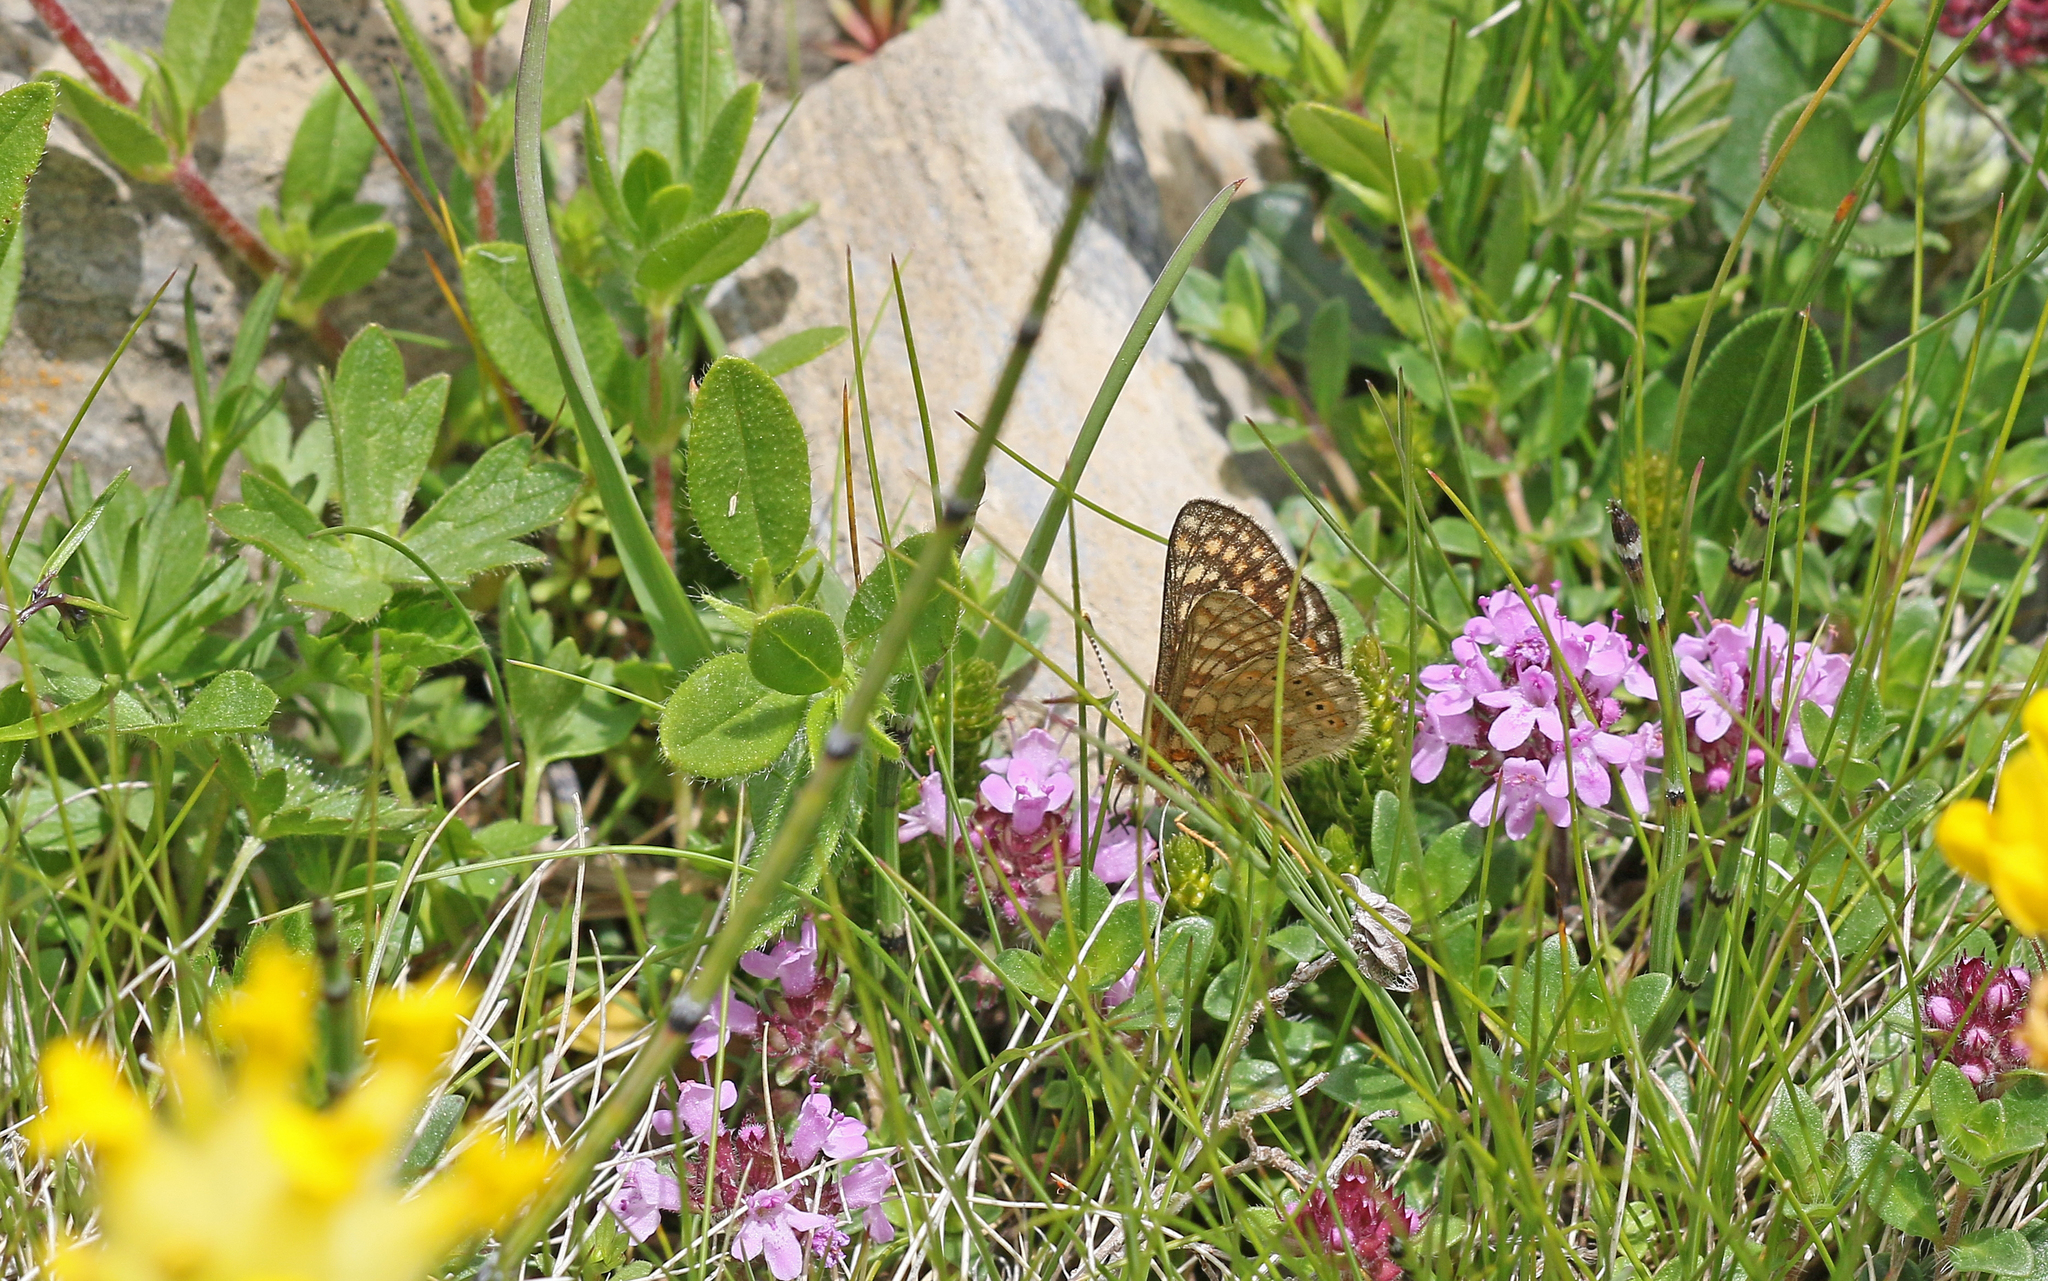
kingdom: Animalia
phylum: Arthropoda
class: Insecta
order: Lepidoptera
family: Nymphalidae
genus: Euphydryas
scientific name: Euphydryas aurinia
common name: Marsh fritillary
